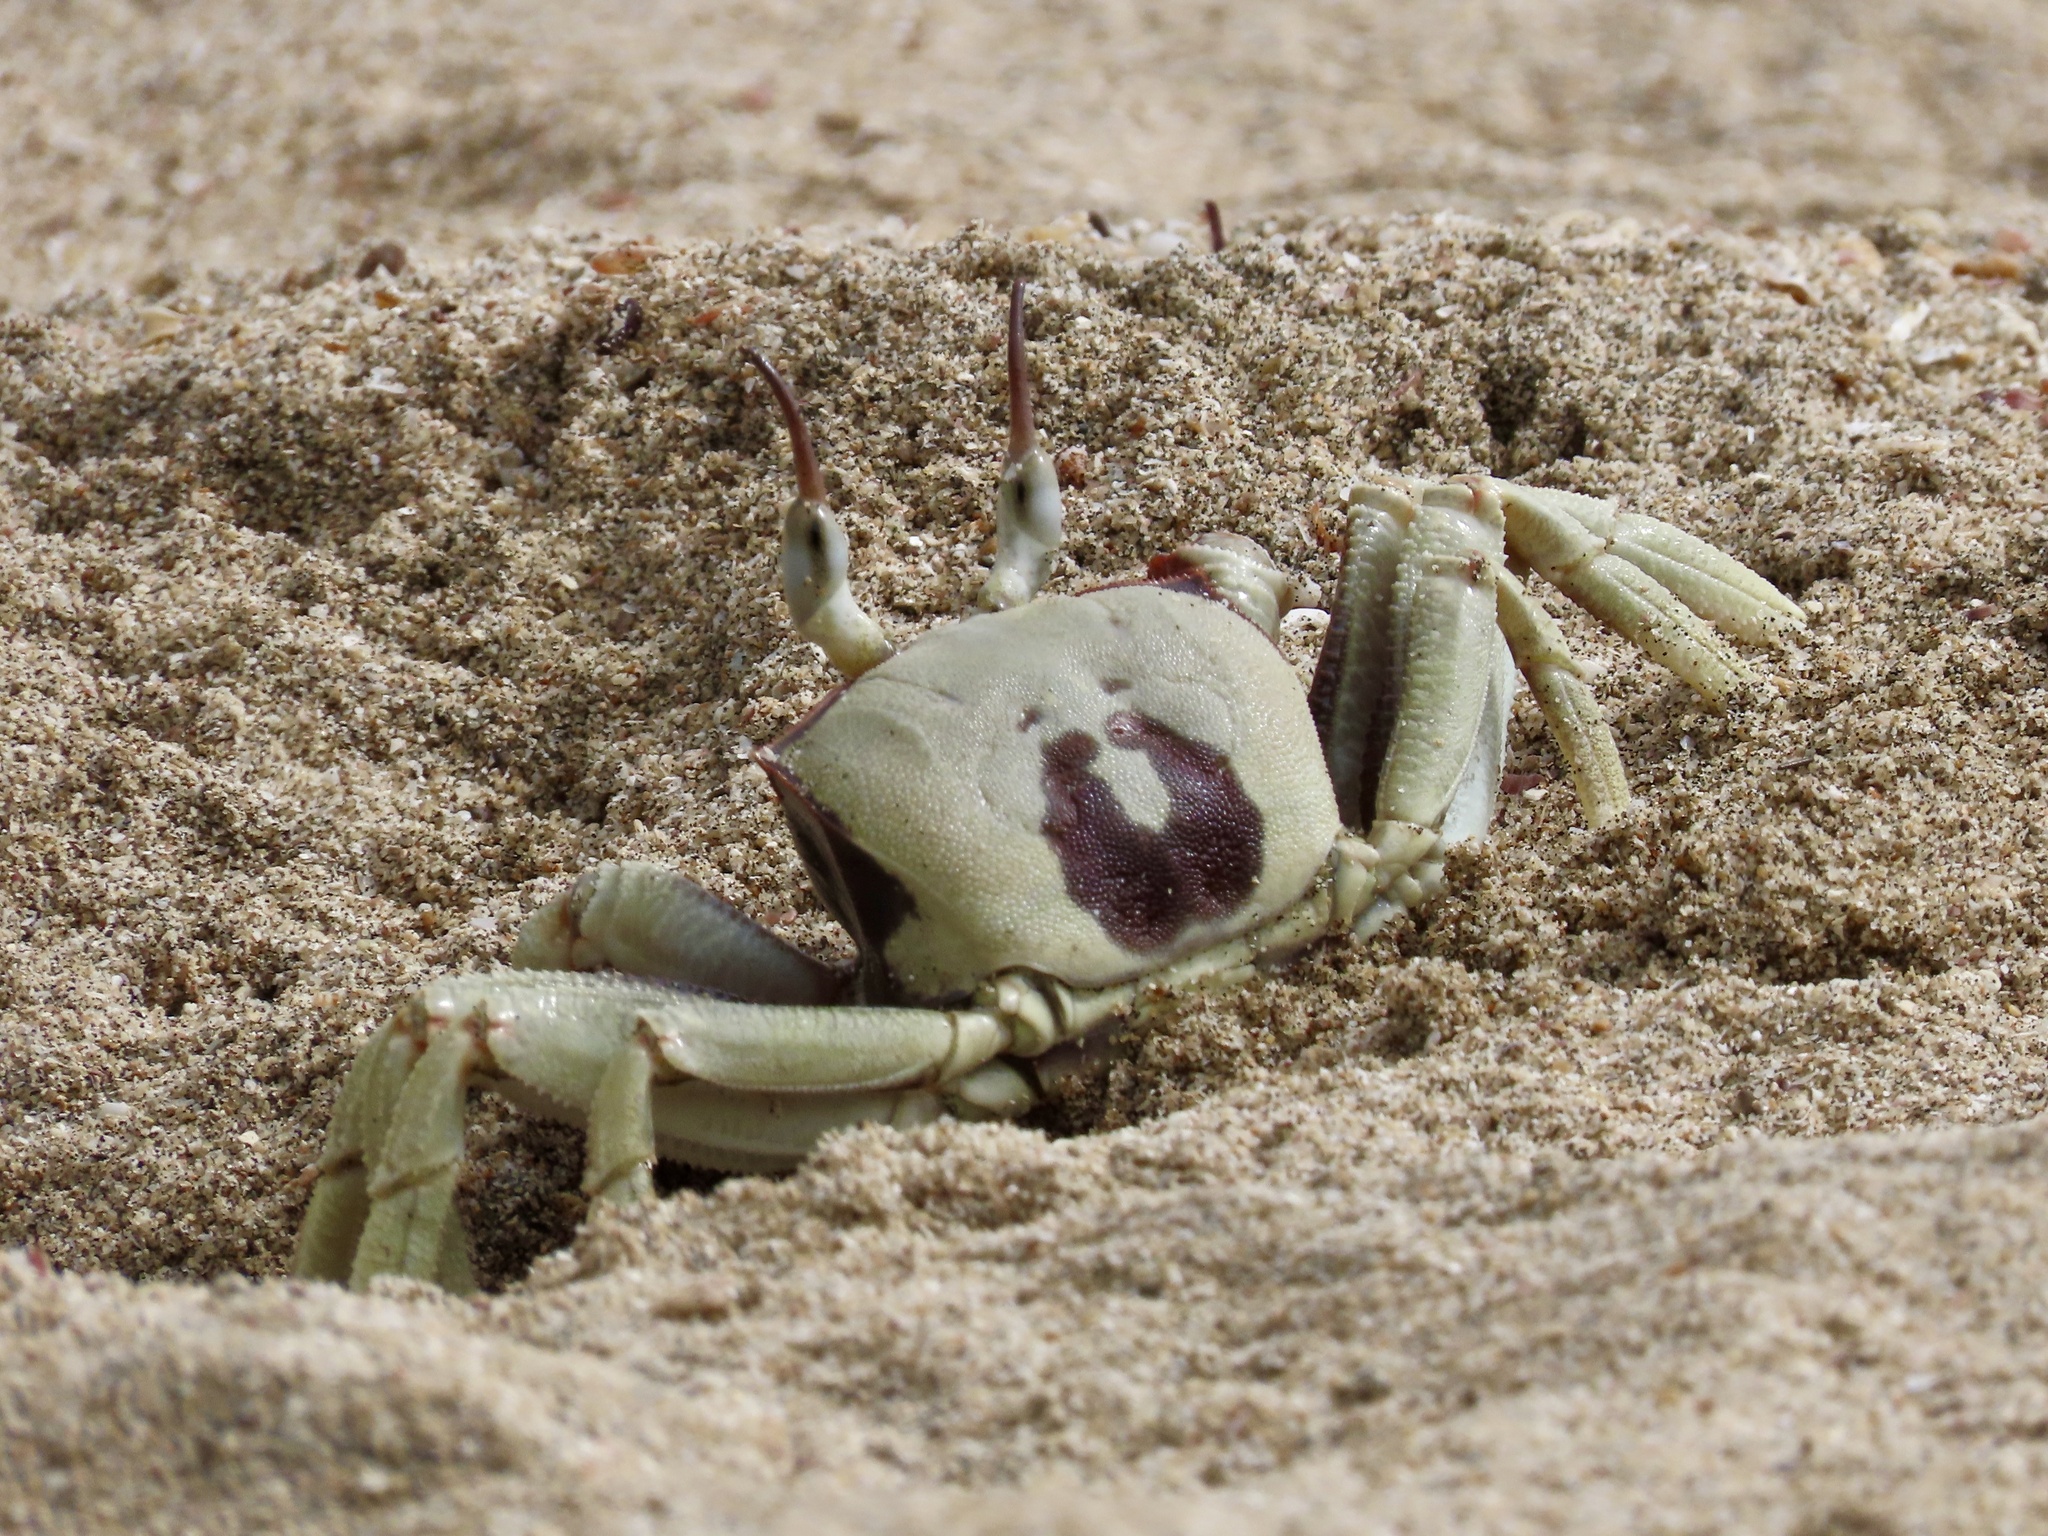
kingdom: Animalia
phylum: Arthropoda
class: Malacostraca
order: Decapoda
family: Ocypodidae
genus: Ocypode
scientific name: Ocypode ceratophthalmus
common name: Indo-pacific ghost crab
